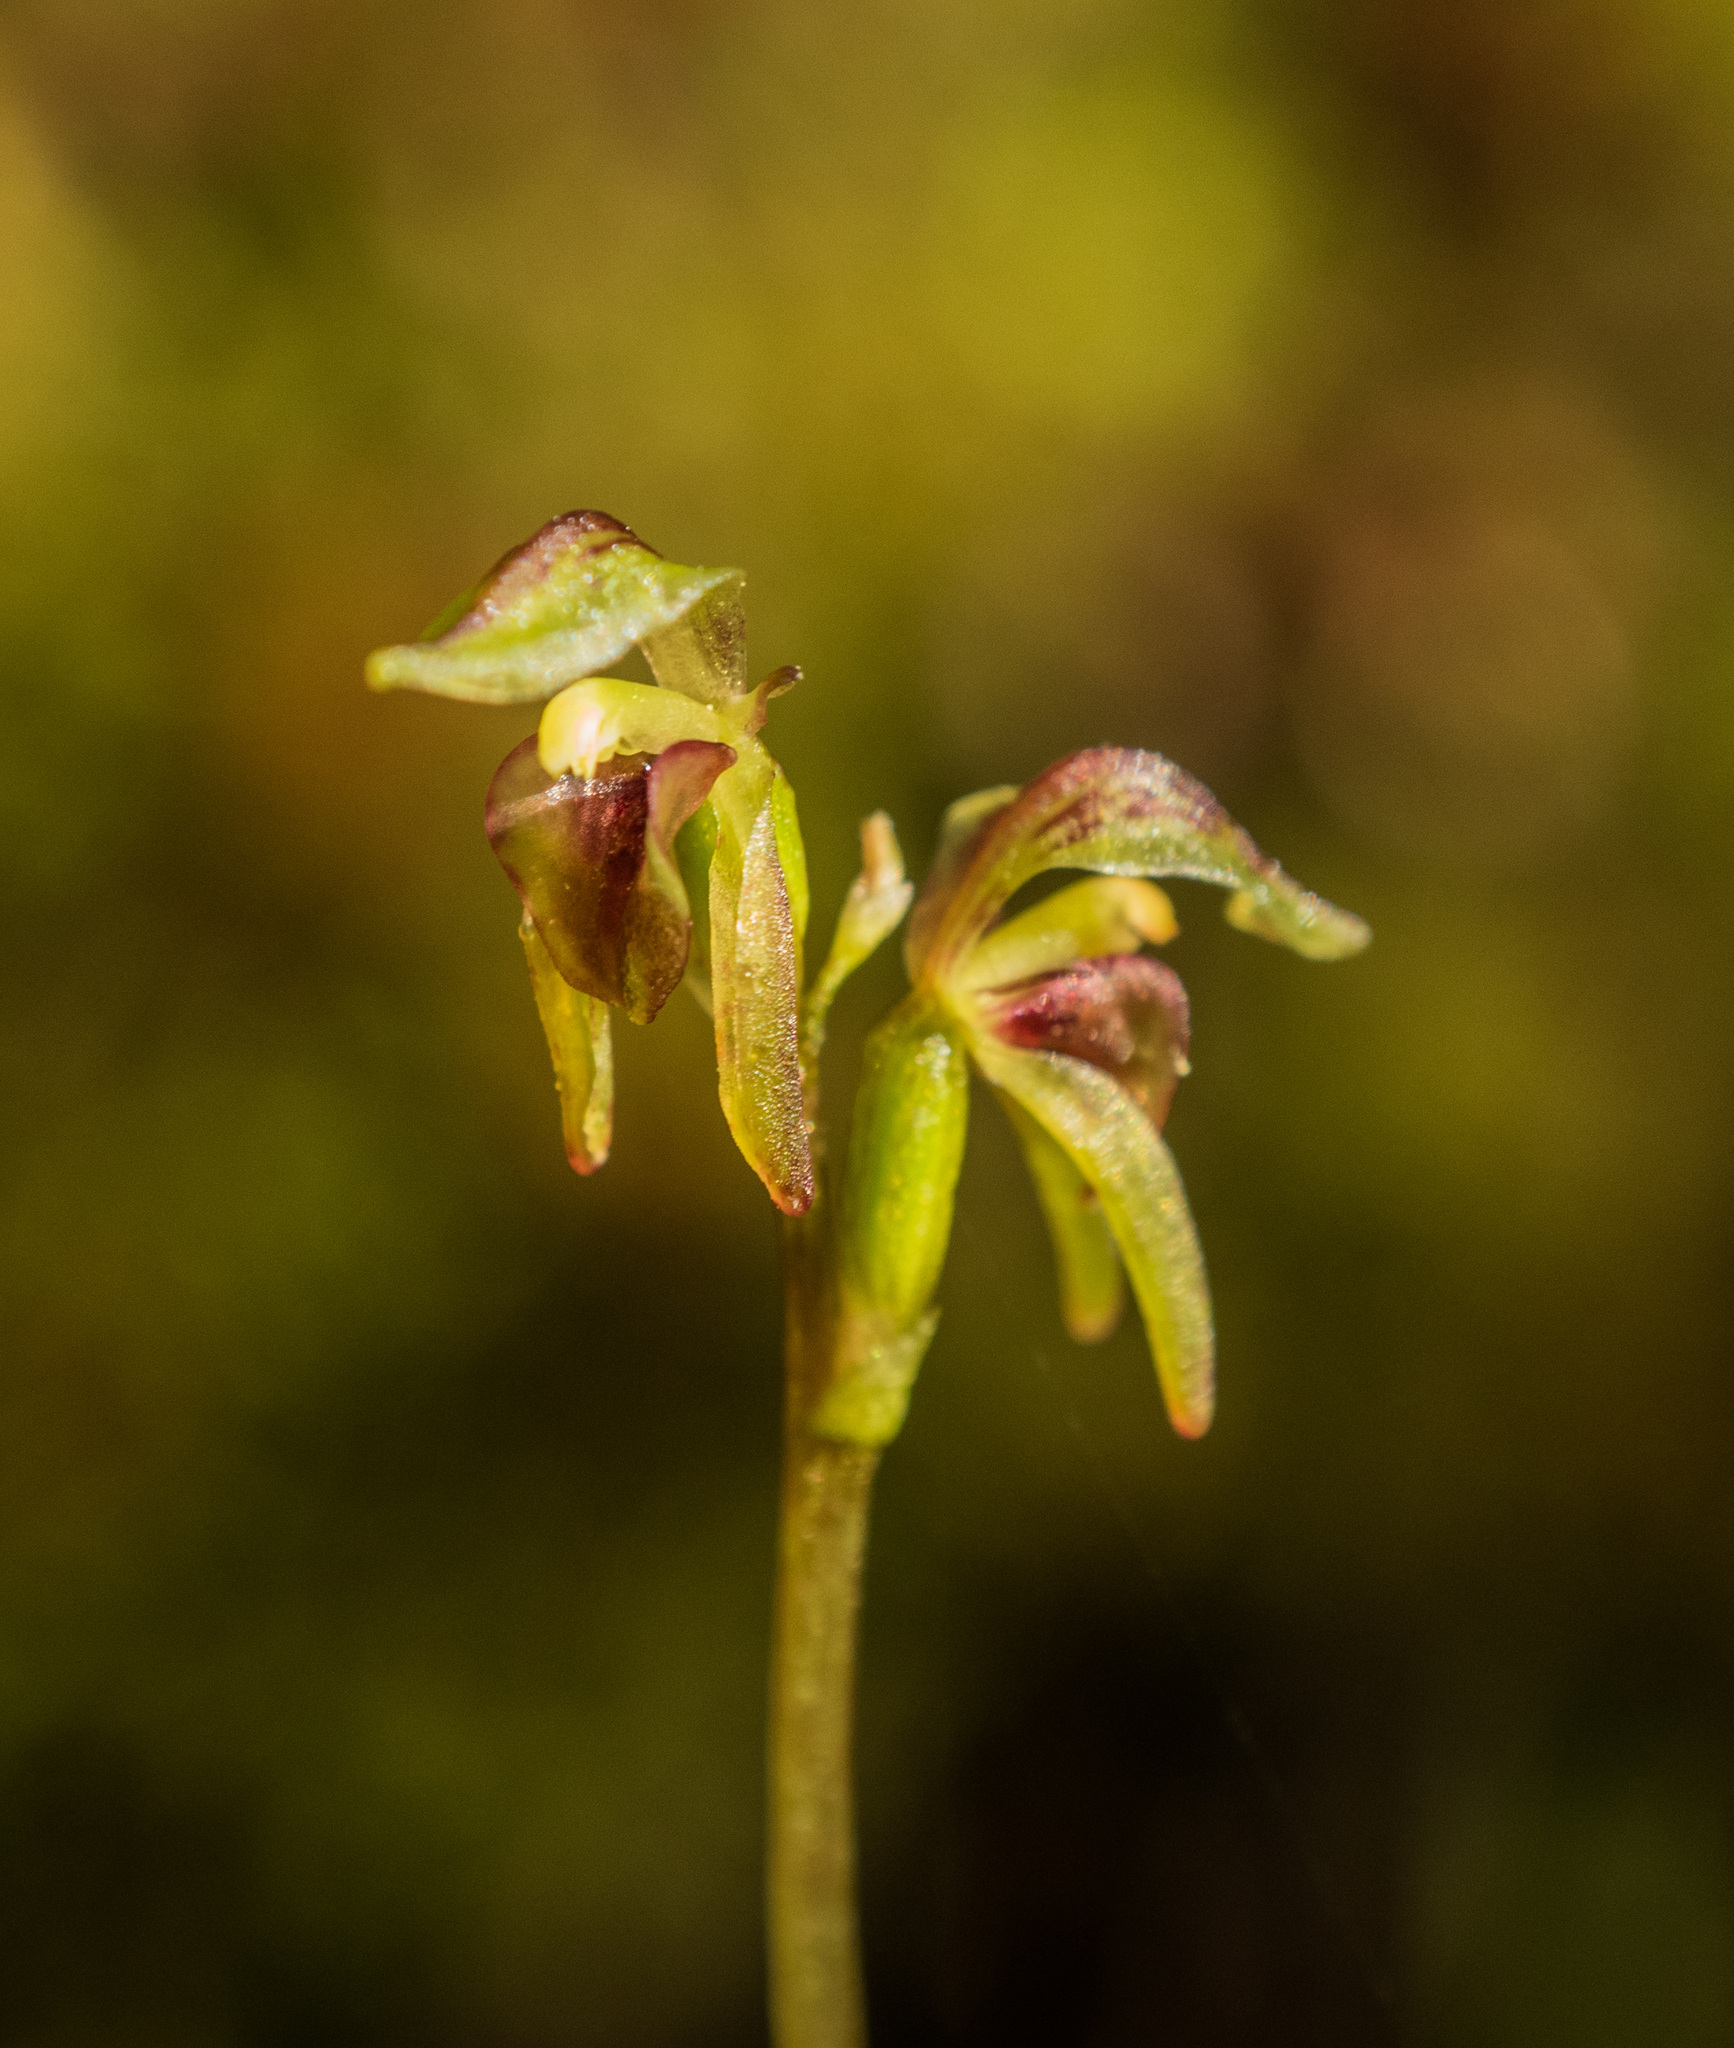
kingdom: Plantae
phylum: Tracheophyta
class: Liliopsida
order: Asparagales
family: Orchidaceae
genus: Townsonia
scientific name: Townsonia deflexa
